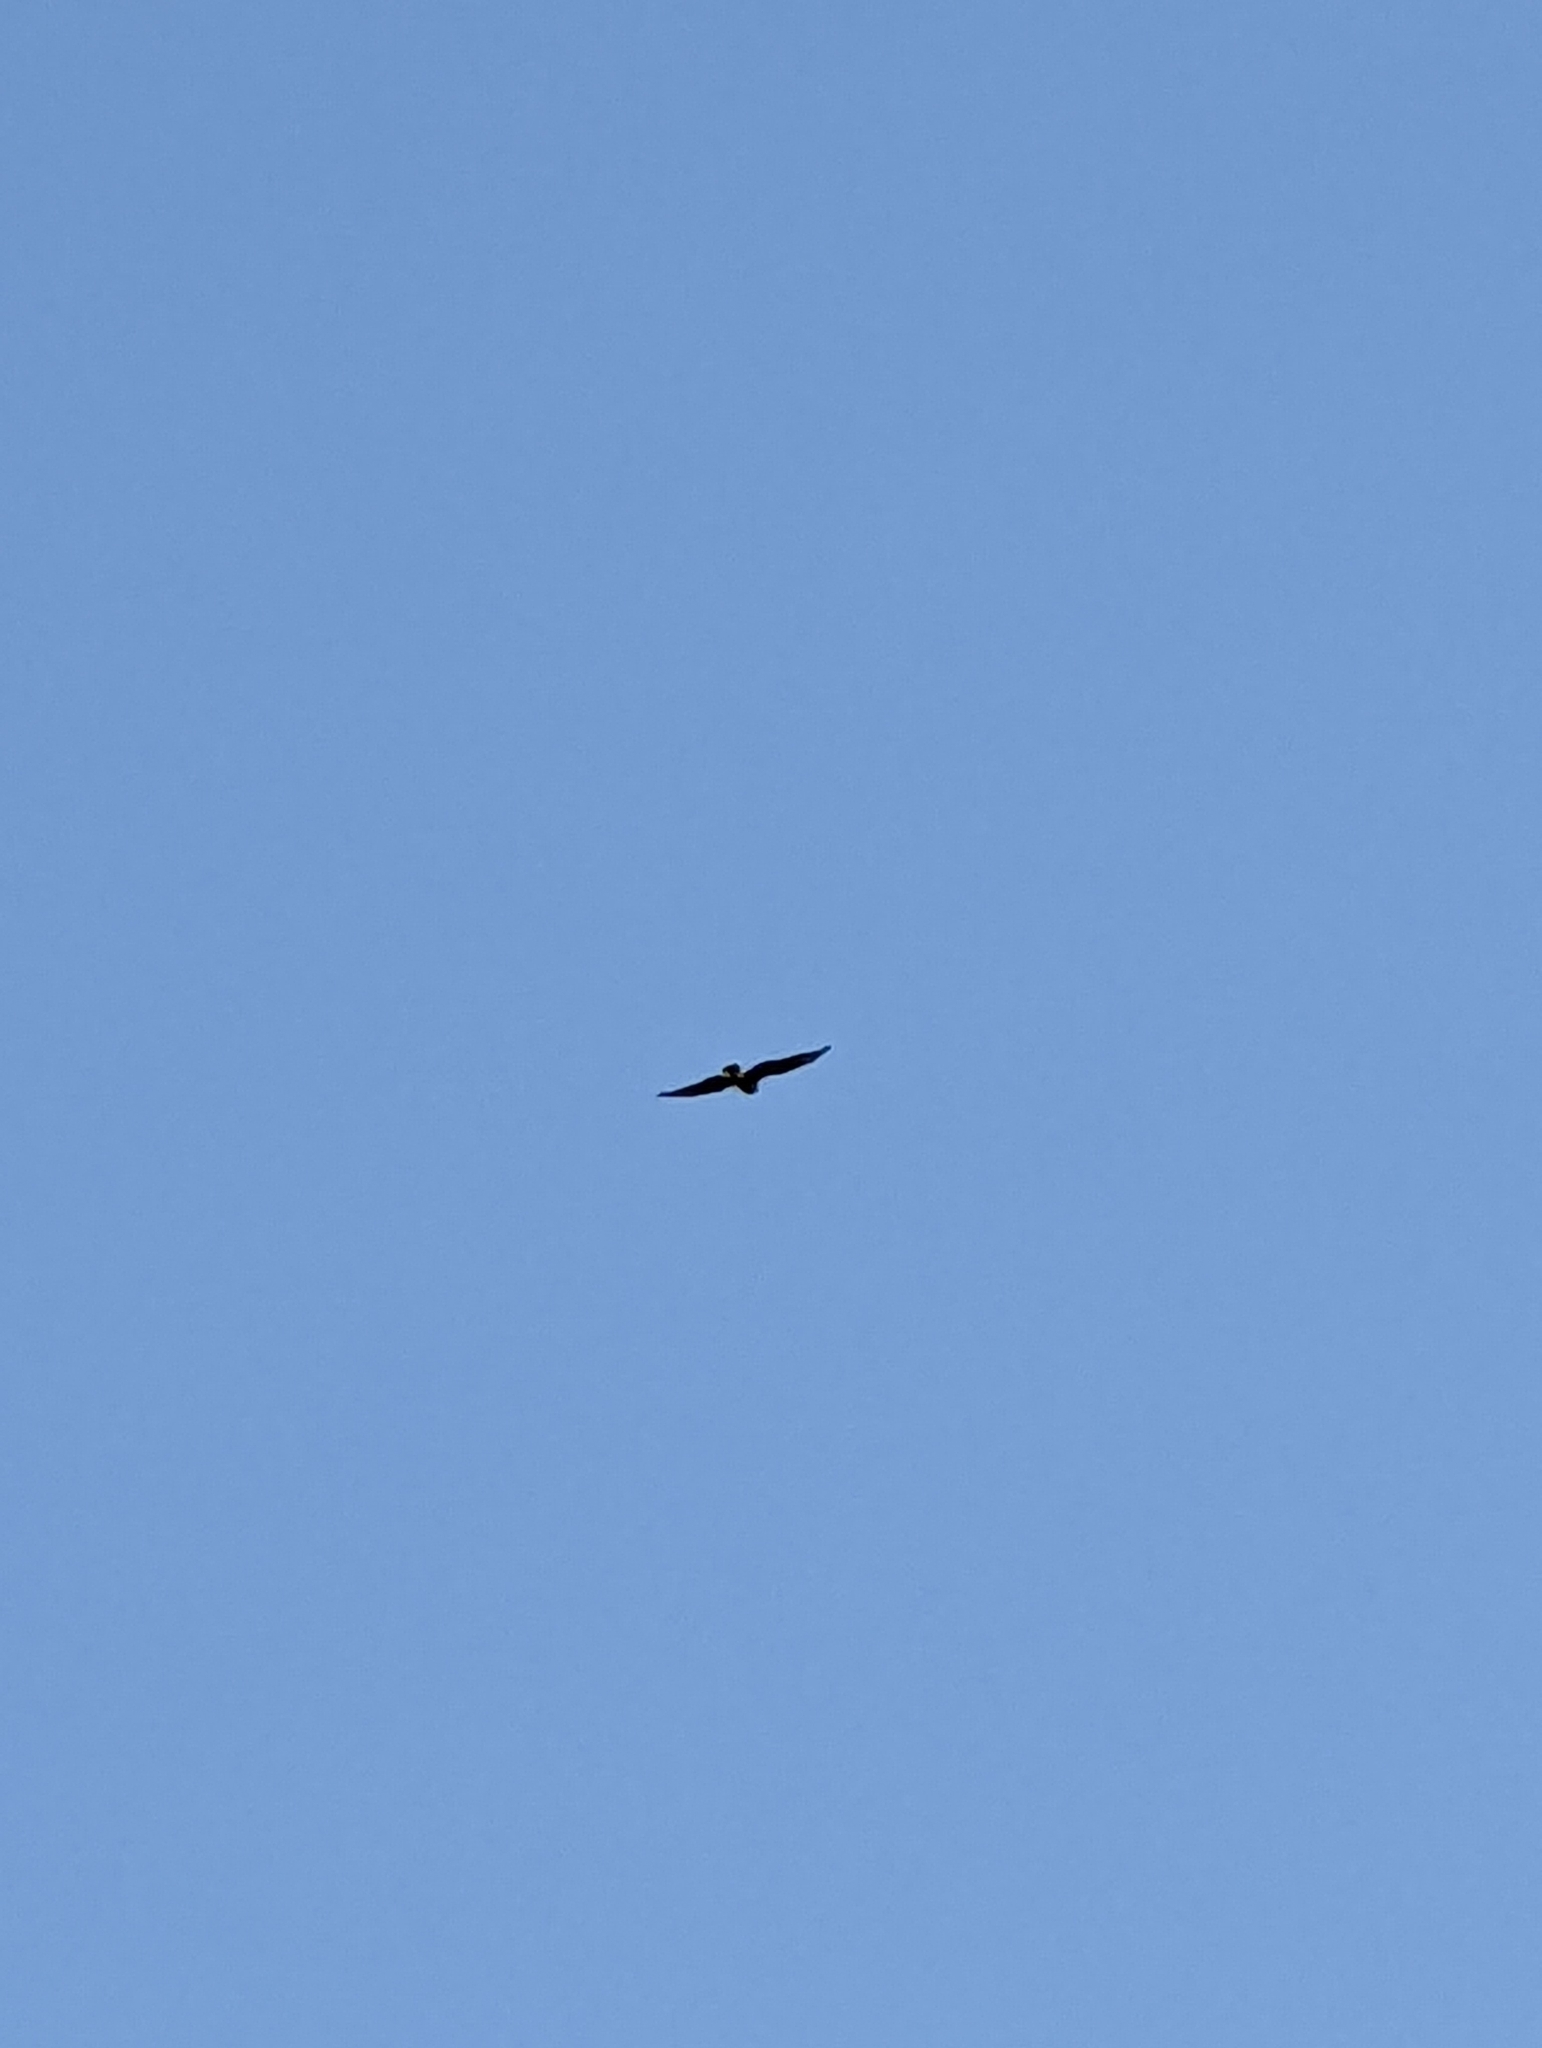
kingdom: Animalia
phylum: Chordata
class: Aves
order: Accipitriformes
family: Accipitridae
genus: Buteo
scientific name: Buteo buteo
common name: Common buzzard
